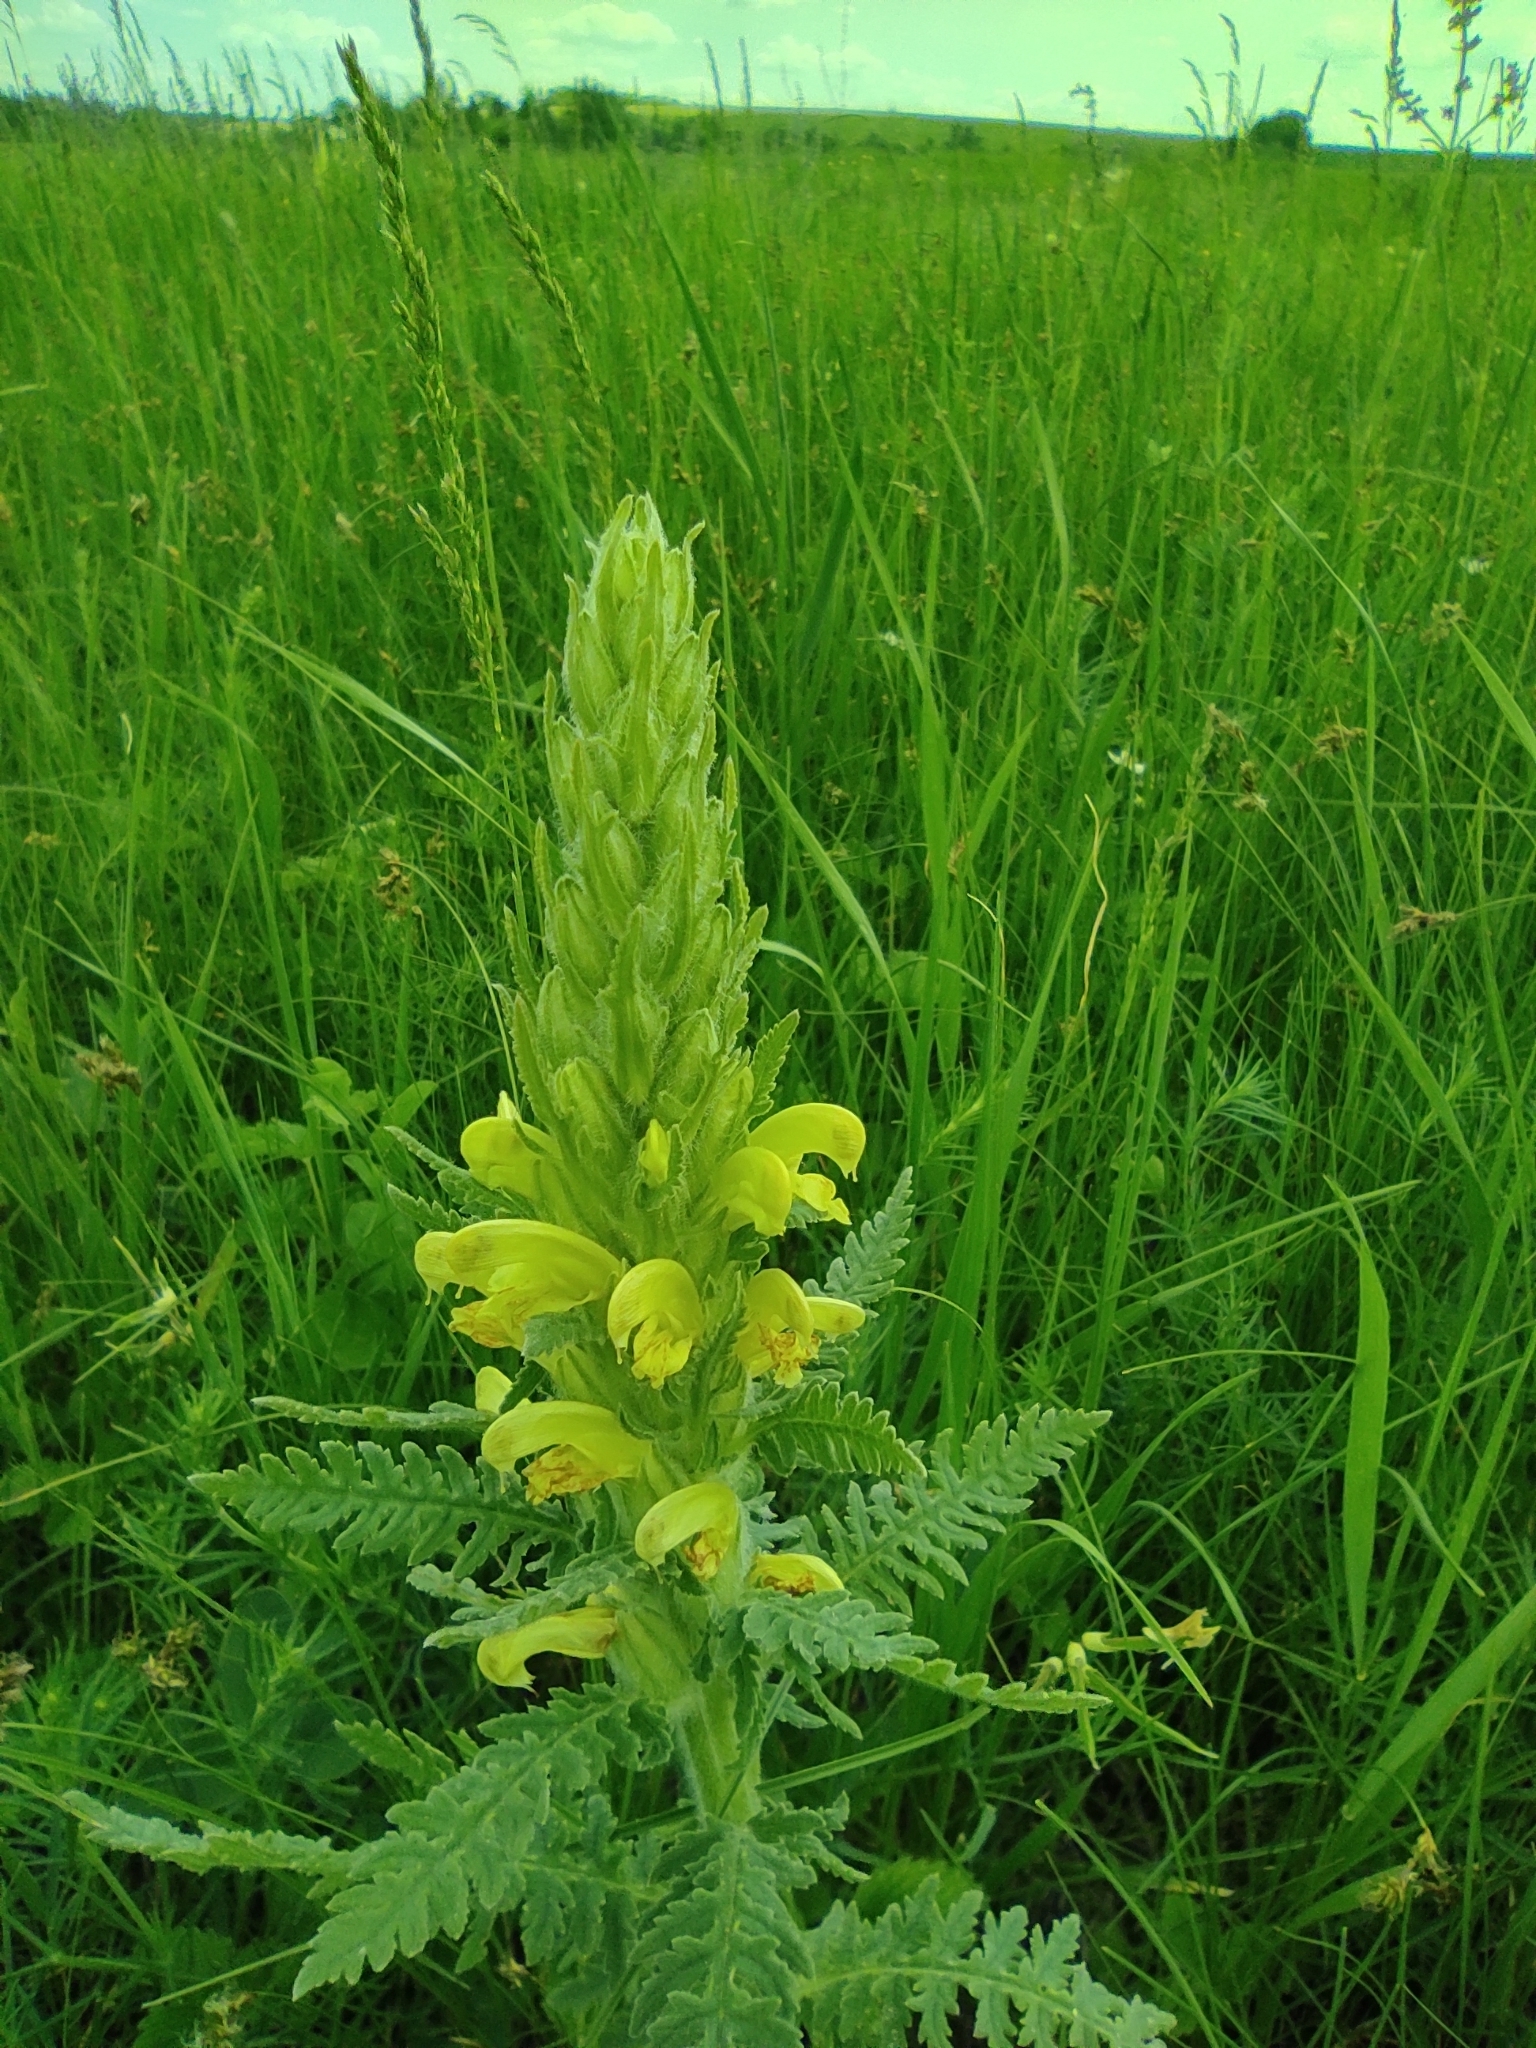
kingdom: Plantae
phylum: Tracheophyta
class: Magnoliopsida
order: Lamiales
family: Orobanchaceae
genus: Pedicularis
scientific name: Pedicularis kaufmannii
